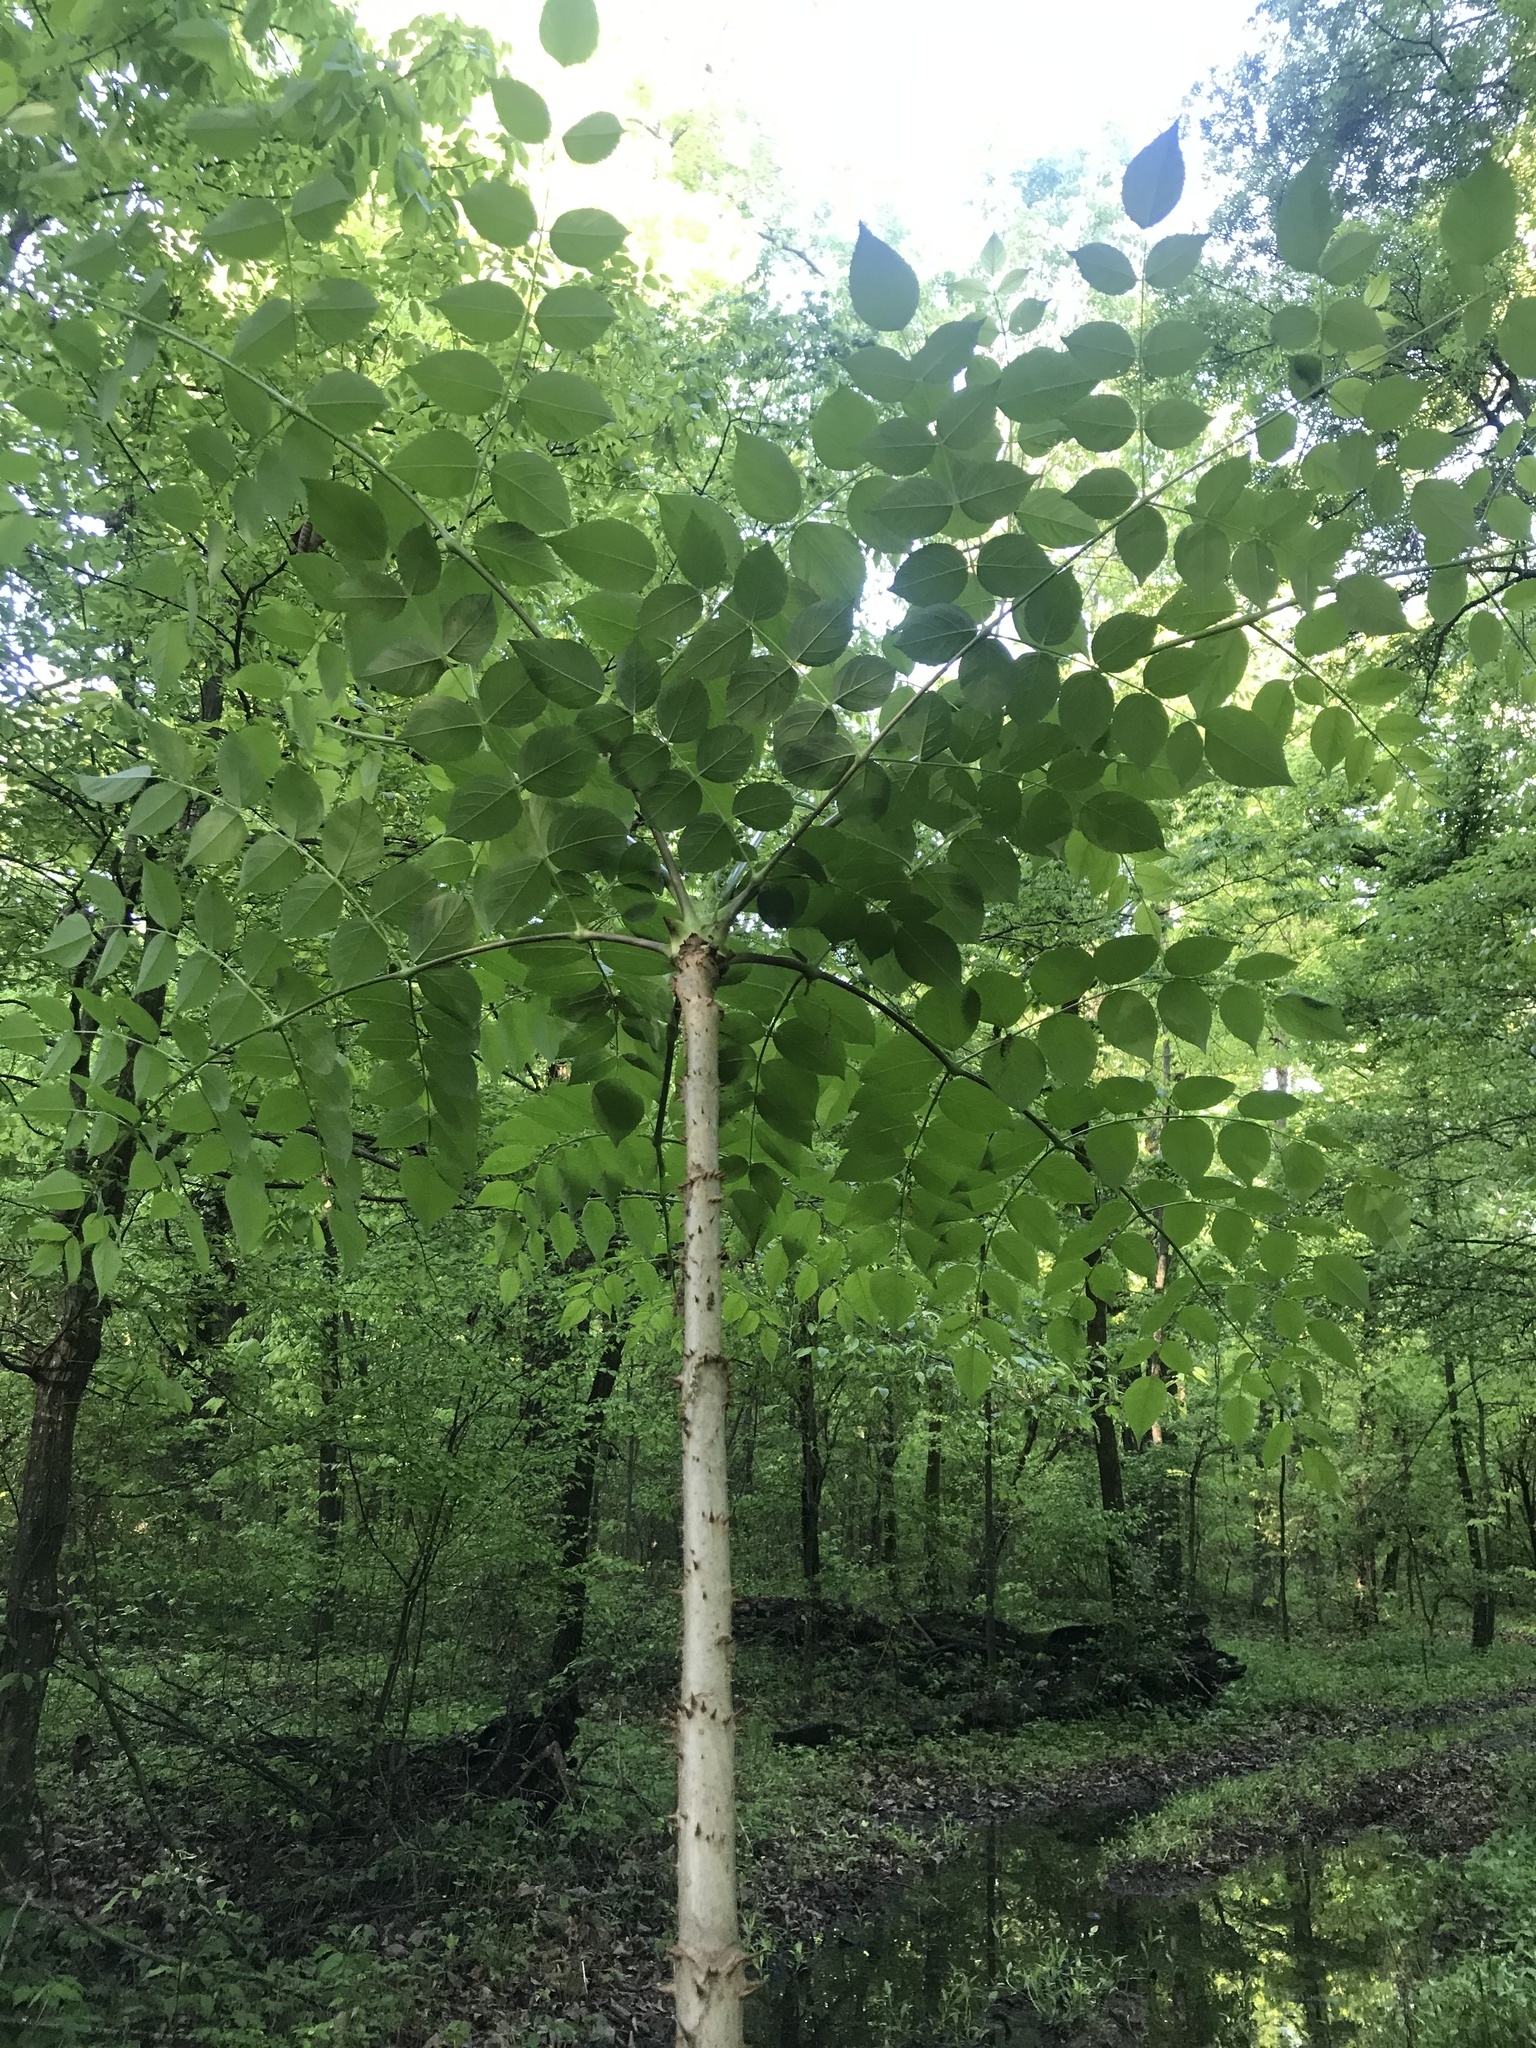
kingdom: Plantae
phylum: Tracheophyta
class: Magnoliopsida
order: Apiales
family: Araliaceae
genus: Aralia
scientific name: Aralia spinosa
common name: Hercules'-club
